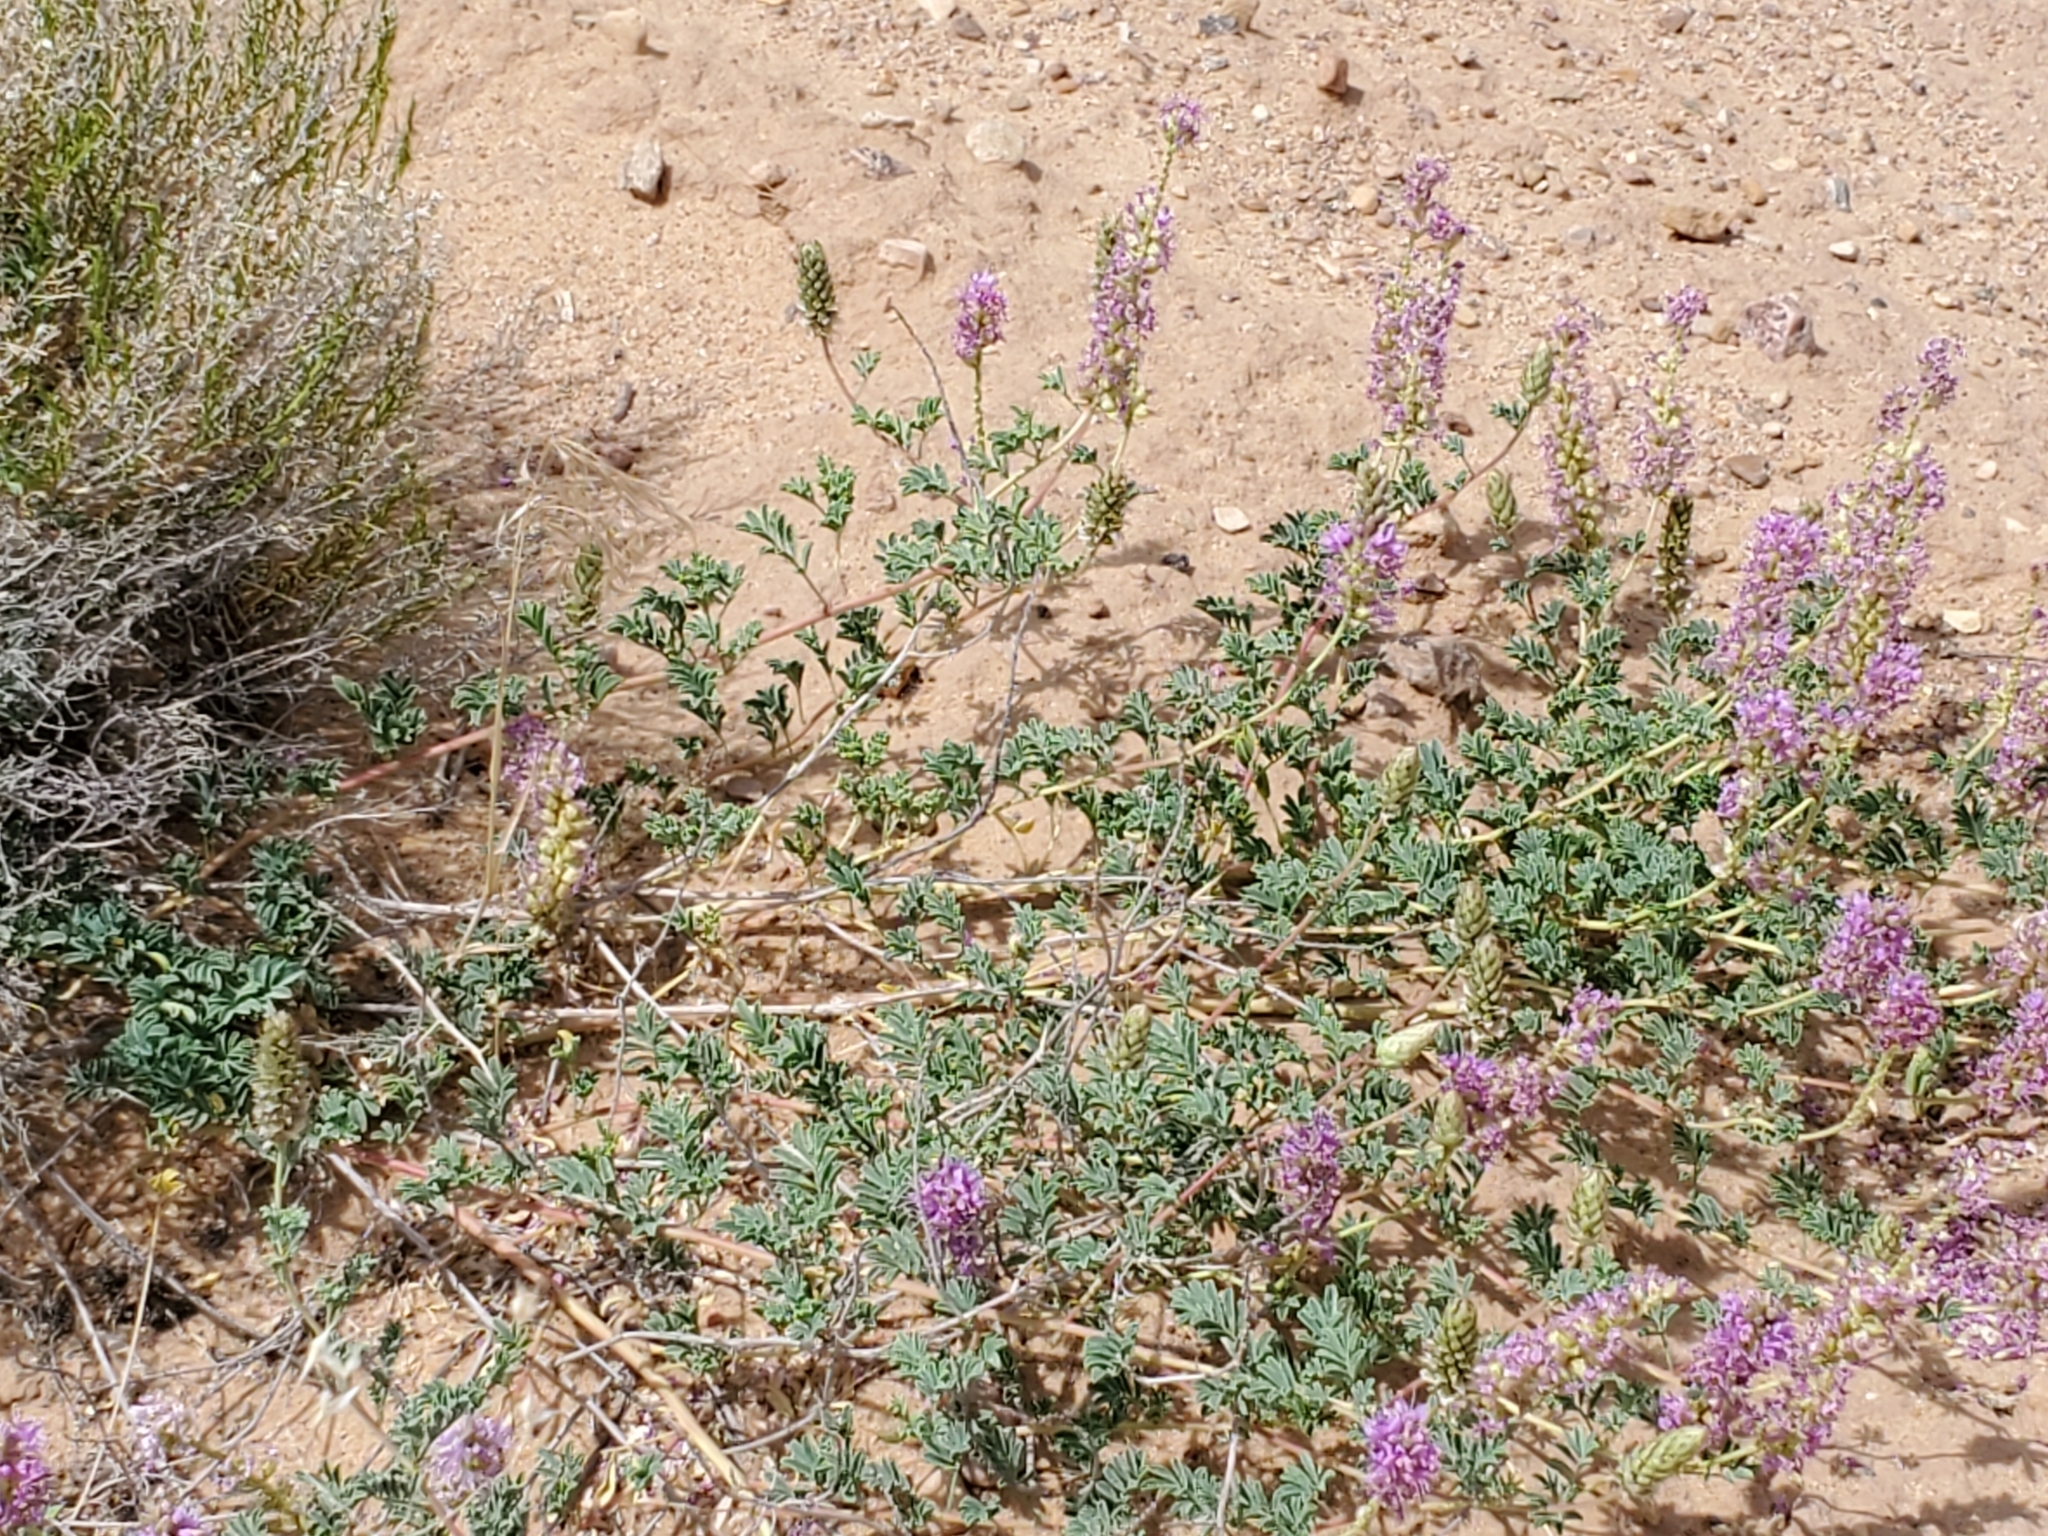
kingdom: Plantae
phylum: Tracheophyta
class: Magnoliopsida
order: Fabales
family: Fabaceae
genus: Dalea
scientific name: Dalea scariosa
